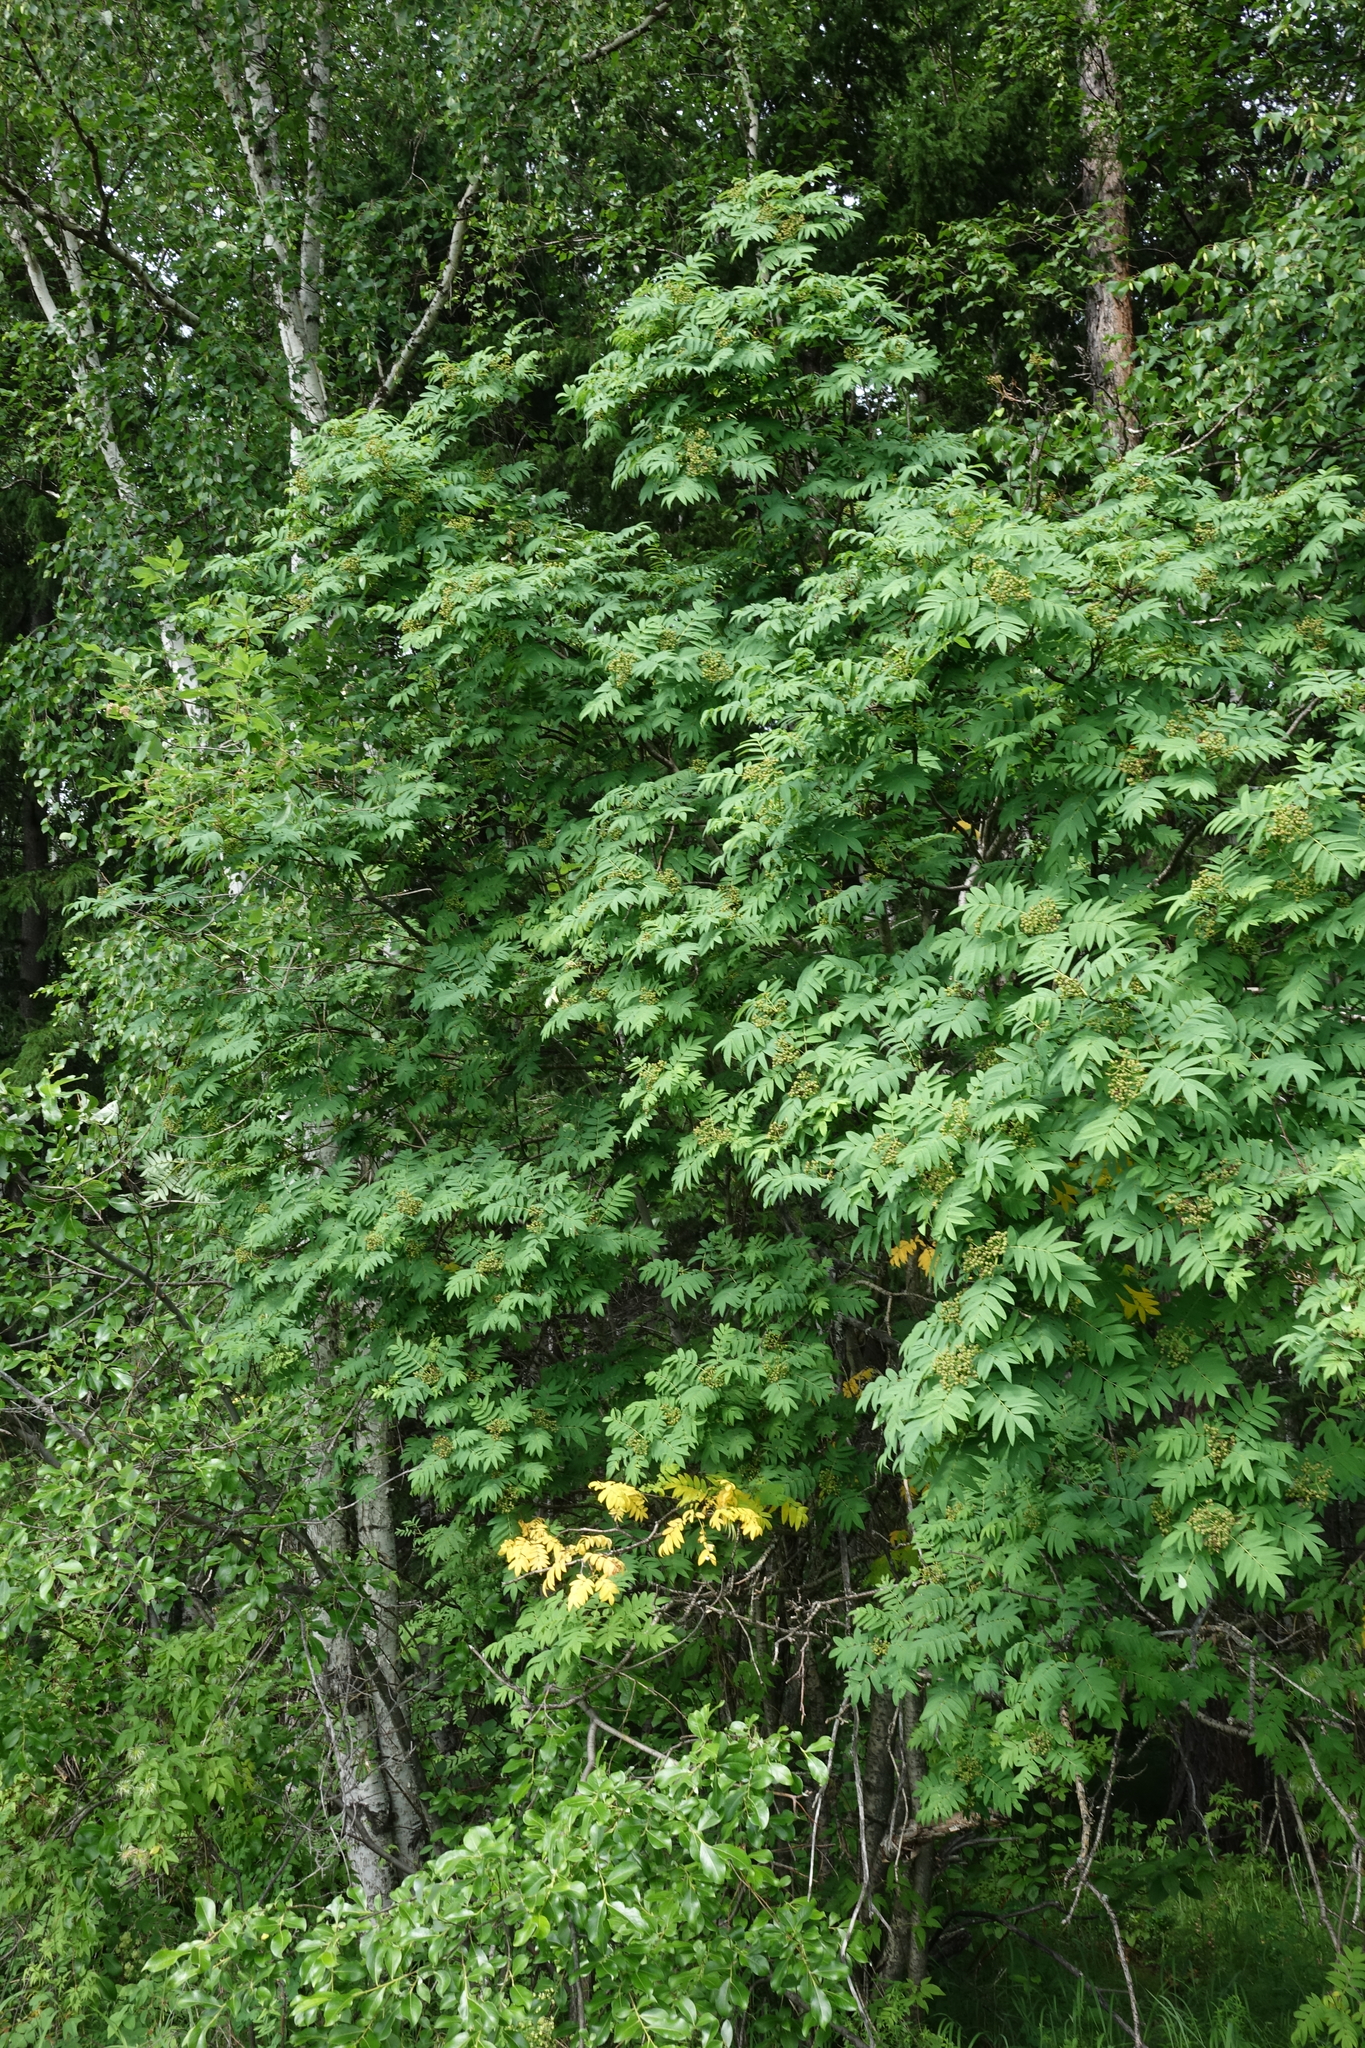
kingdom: Plantae
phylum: Tracheophyta
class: Magnoliopsida
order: Rosales
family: Rosaceae
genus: Sorbus
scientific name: Sorbus aucuparia
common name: Rowan
